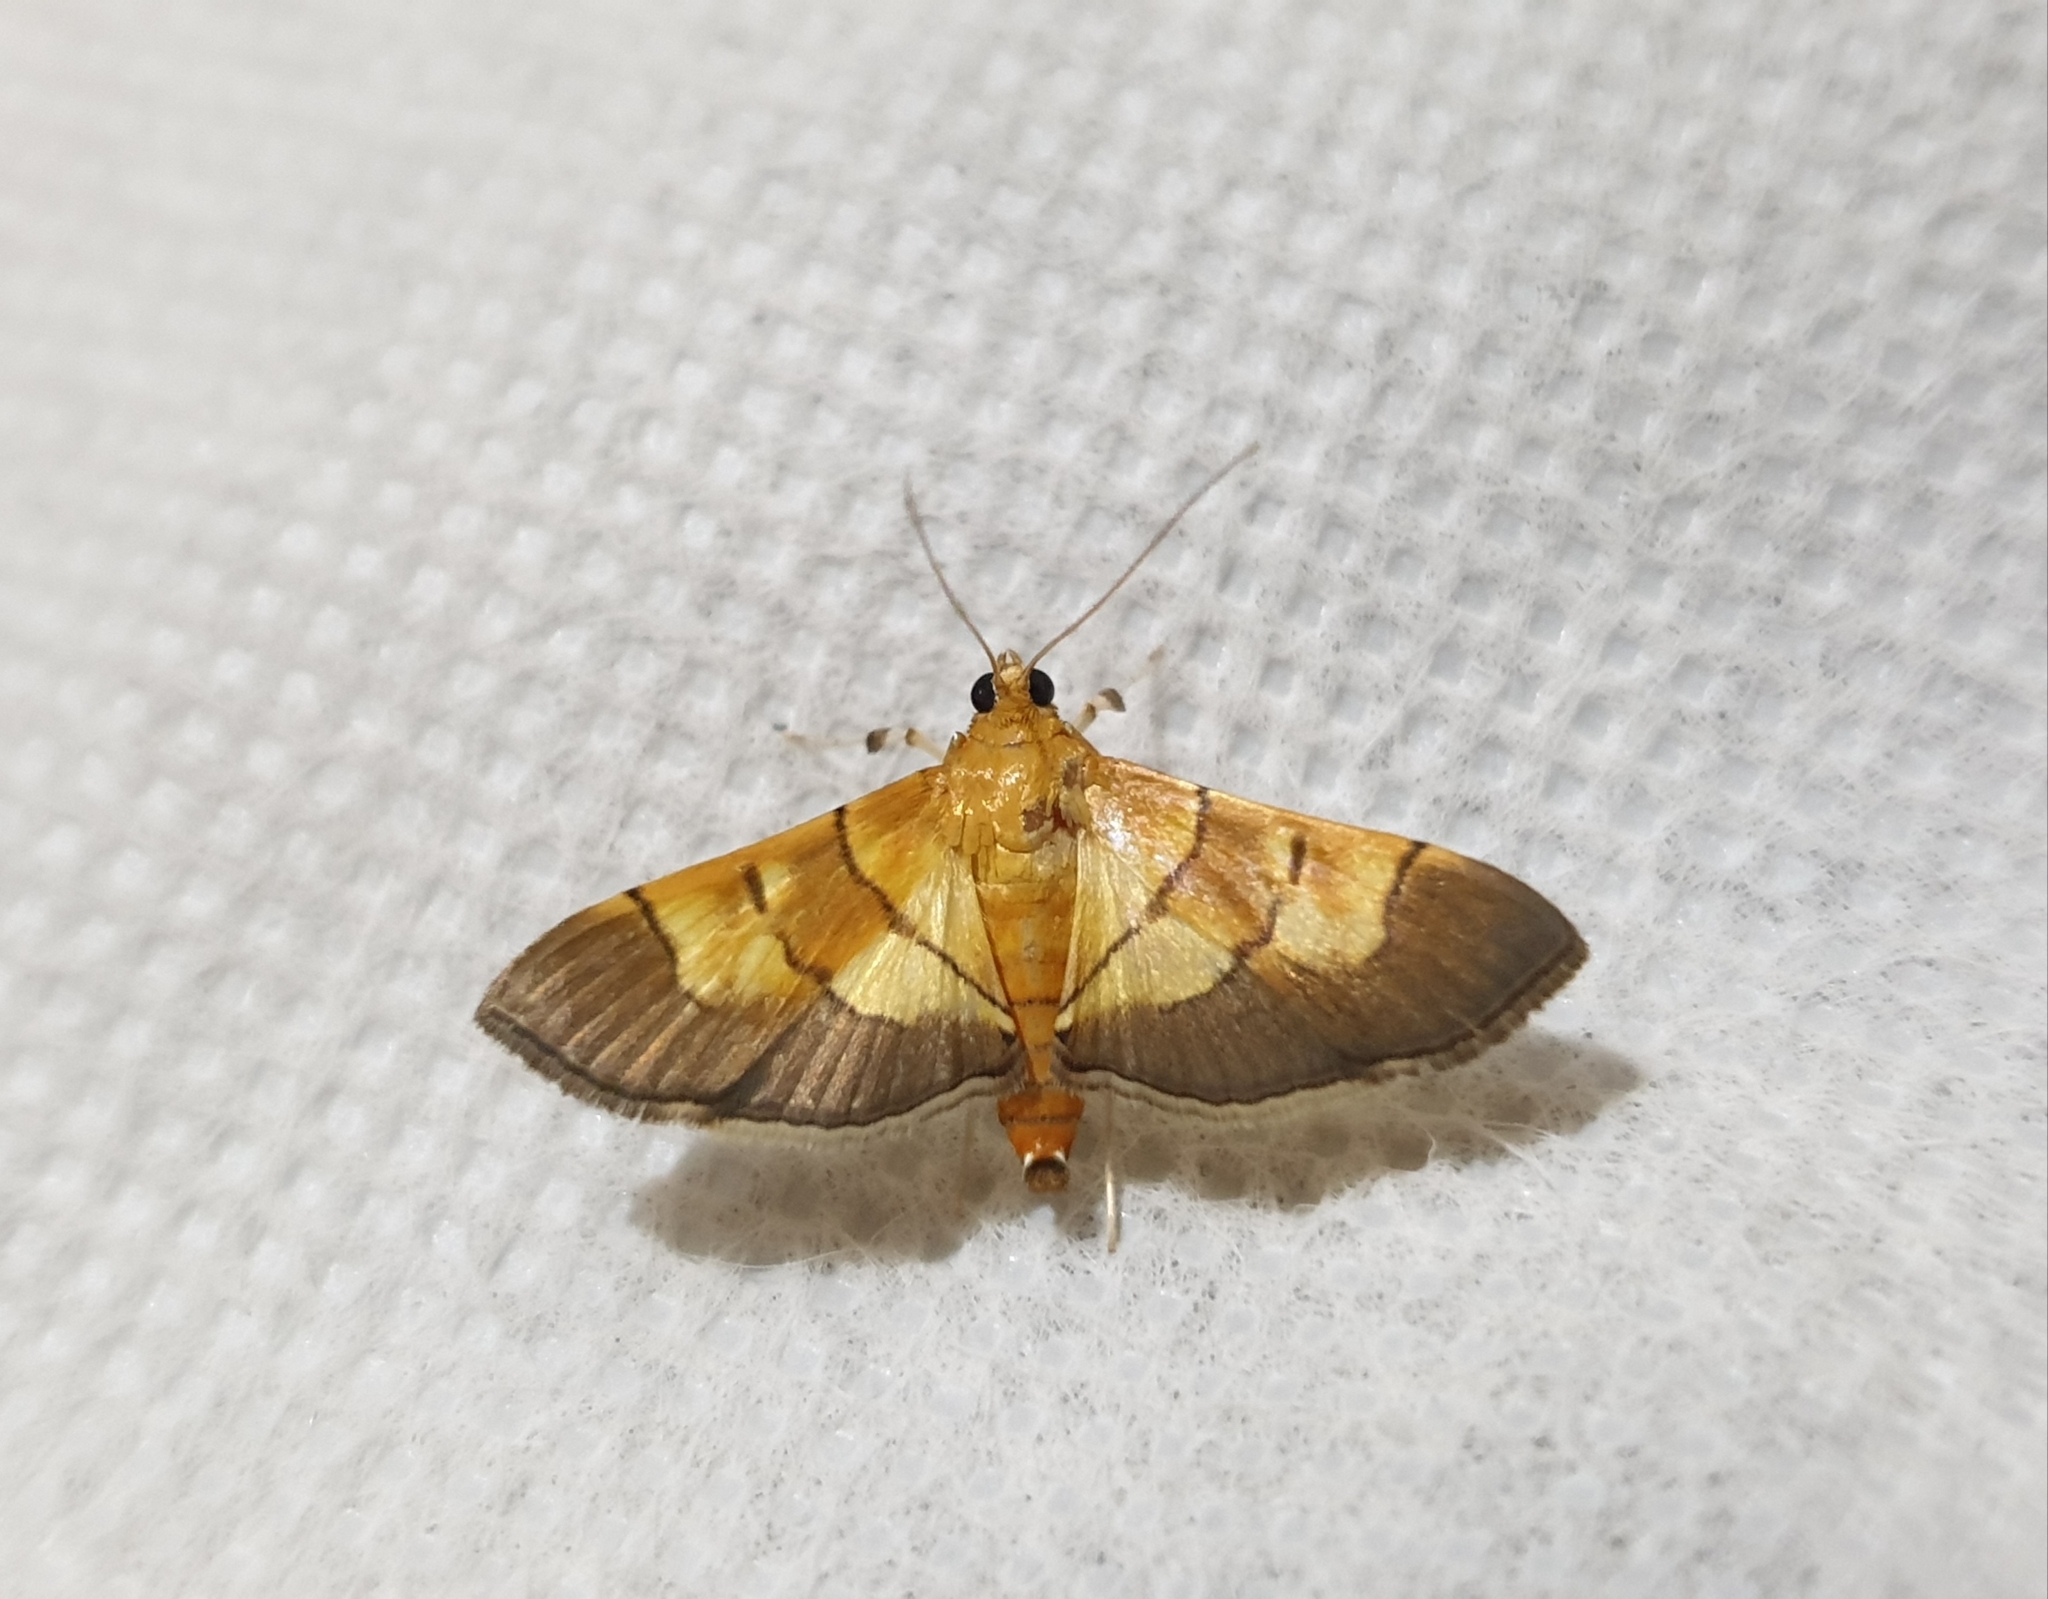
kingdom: Animalia
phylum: Arthropoda
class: Insecta
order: Lepidoptera
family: Crambidae
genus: Syngamia
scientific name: Syngamia latimarginalis
